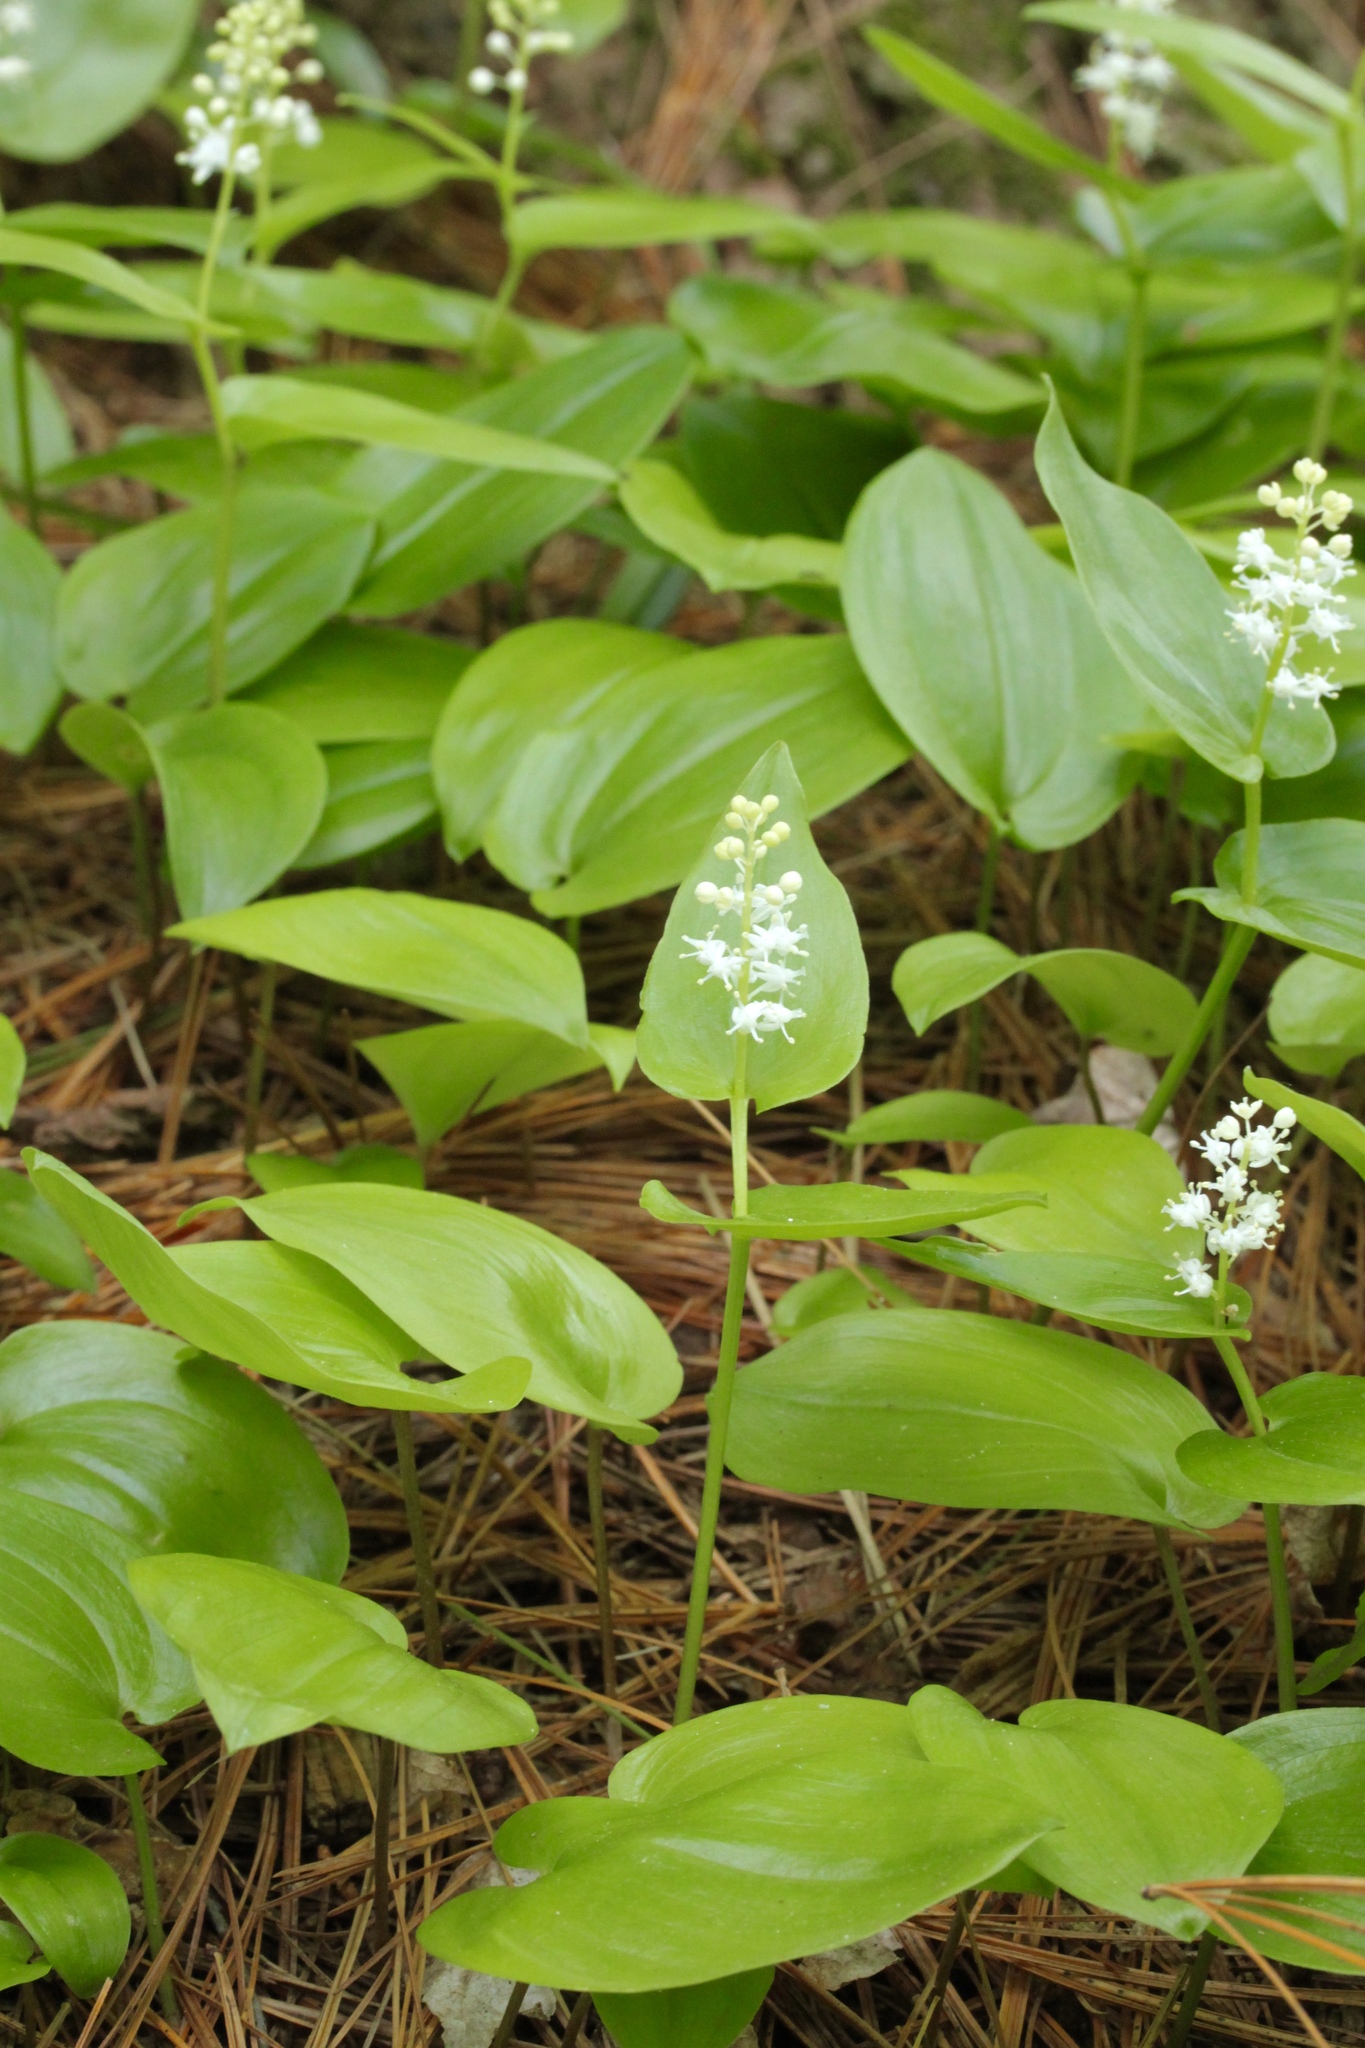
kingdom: Plantae
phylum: Tracheophyta
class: Liliopsida
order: Asparagales
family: Asparagaceae
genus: Maianthemum
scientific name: Maianthemum canadense
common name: False lily-of-the-valley
